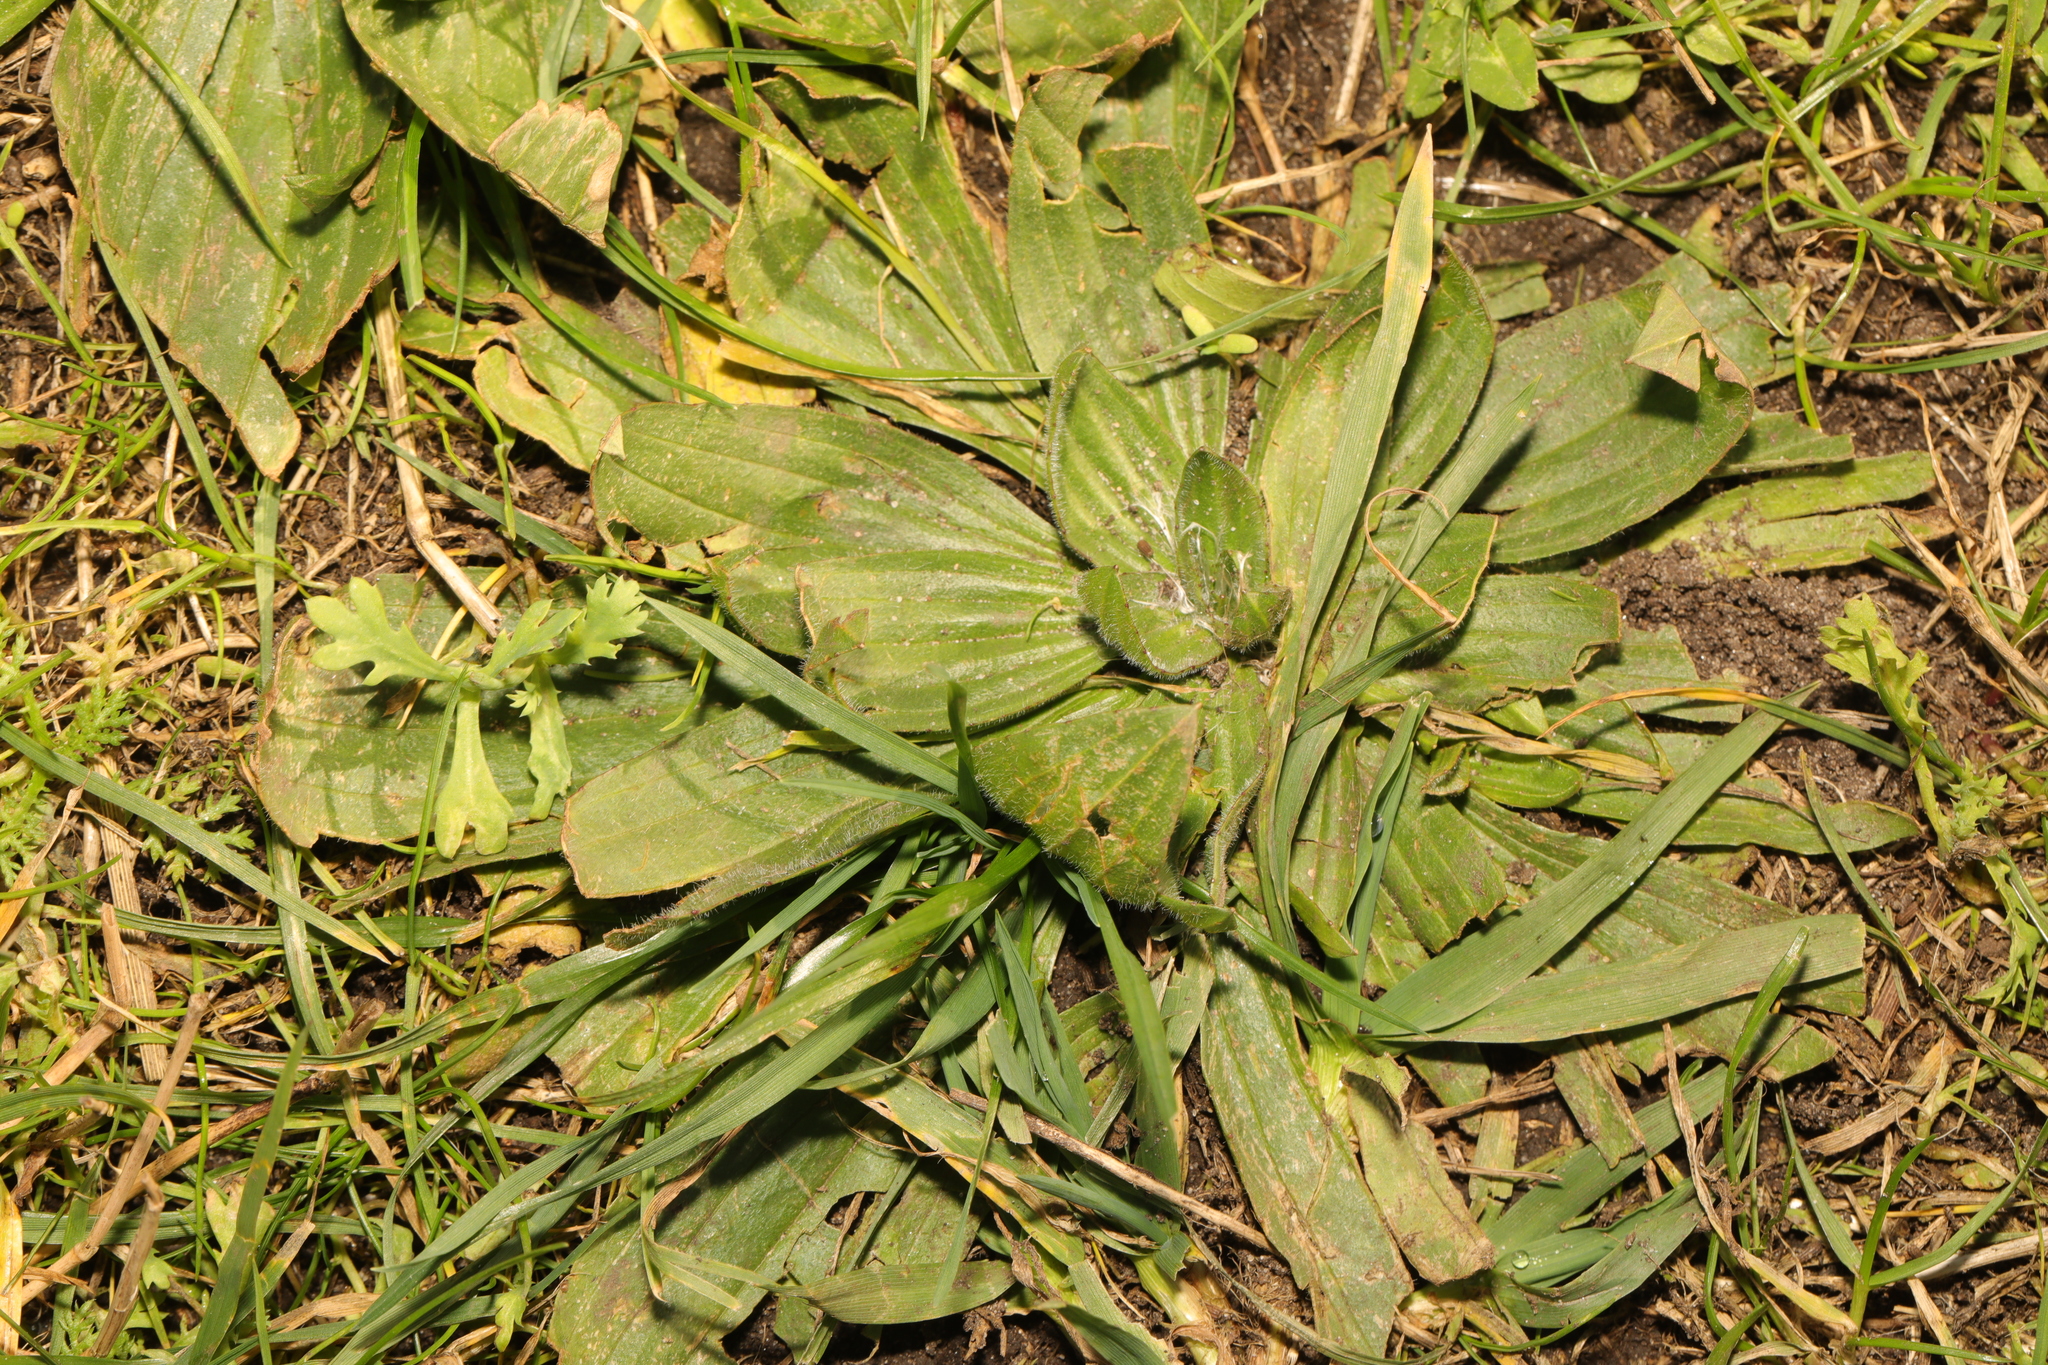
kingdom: Plantae
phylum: Tracheophyta
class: Magnoliopsida
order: Lamiales
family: Plantaginaceae
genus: Plantago
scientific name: Plantago lanceolata
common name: Ribwort plantain
